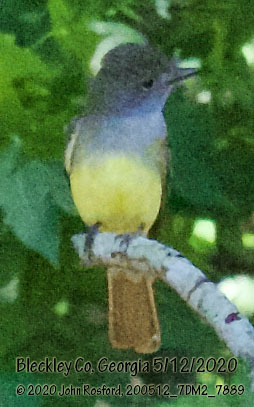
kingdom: Animalia
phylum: Chordata
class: Aves
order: Passeriformes
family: Tyrannidae
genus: Myiarchus
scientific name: Myiarchus crinitus
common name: Great crested flycatcher
